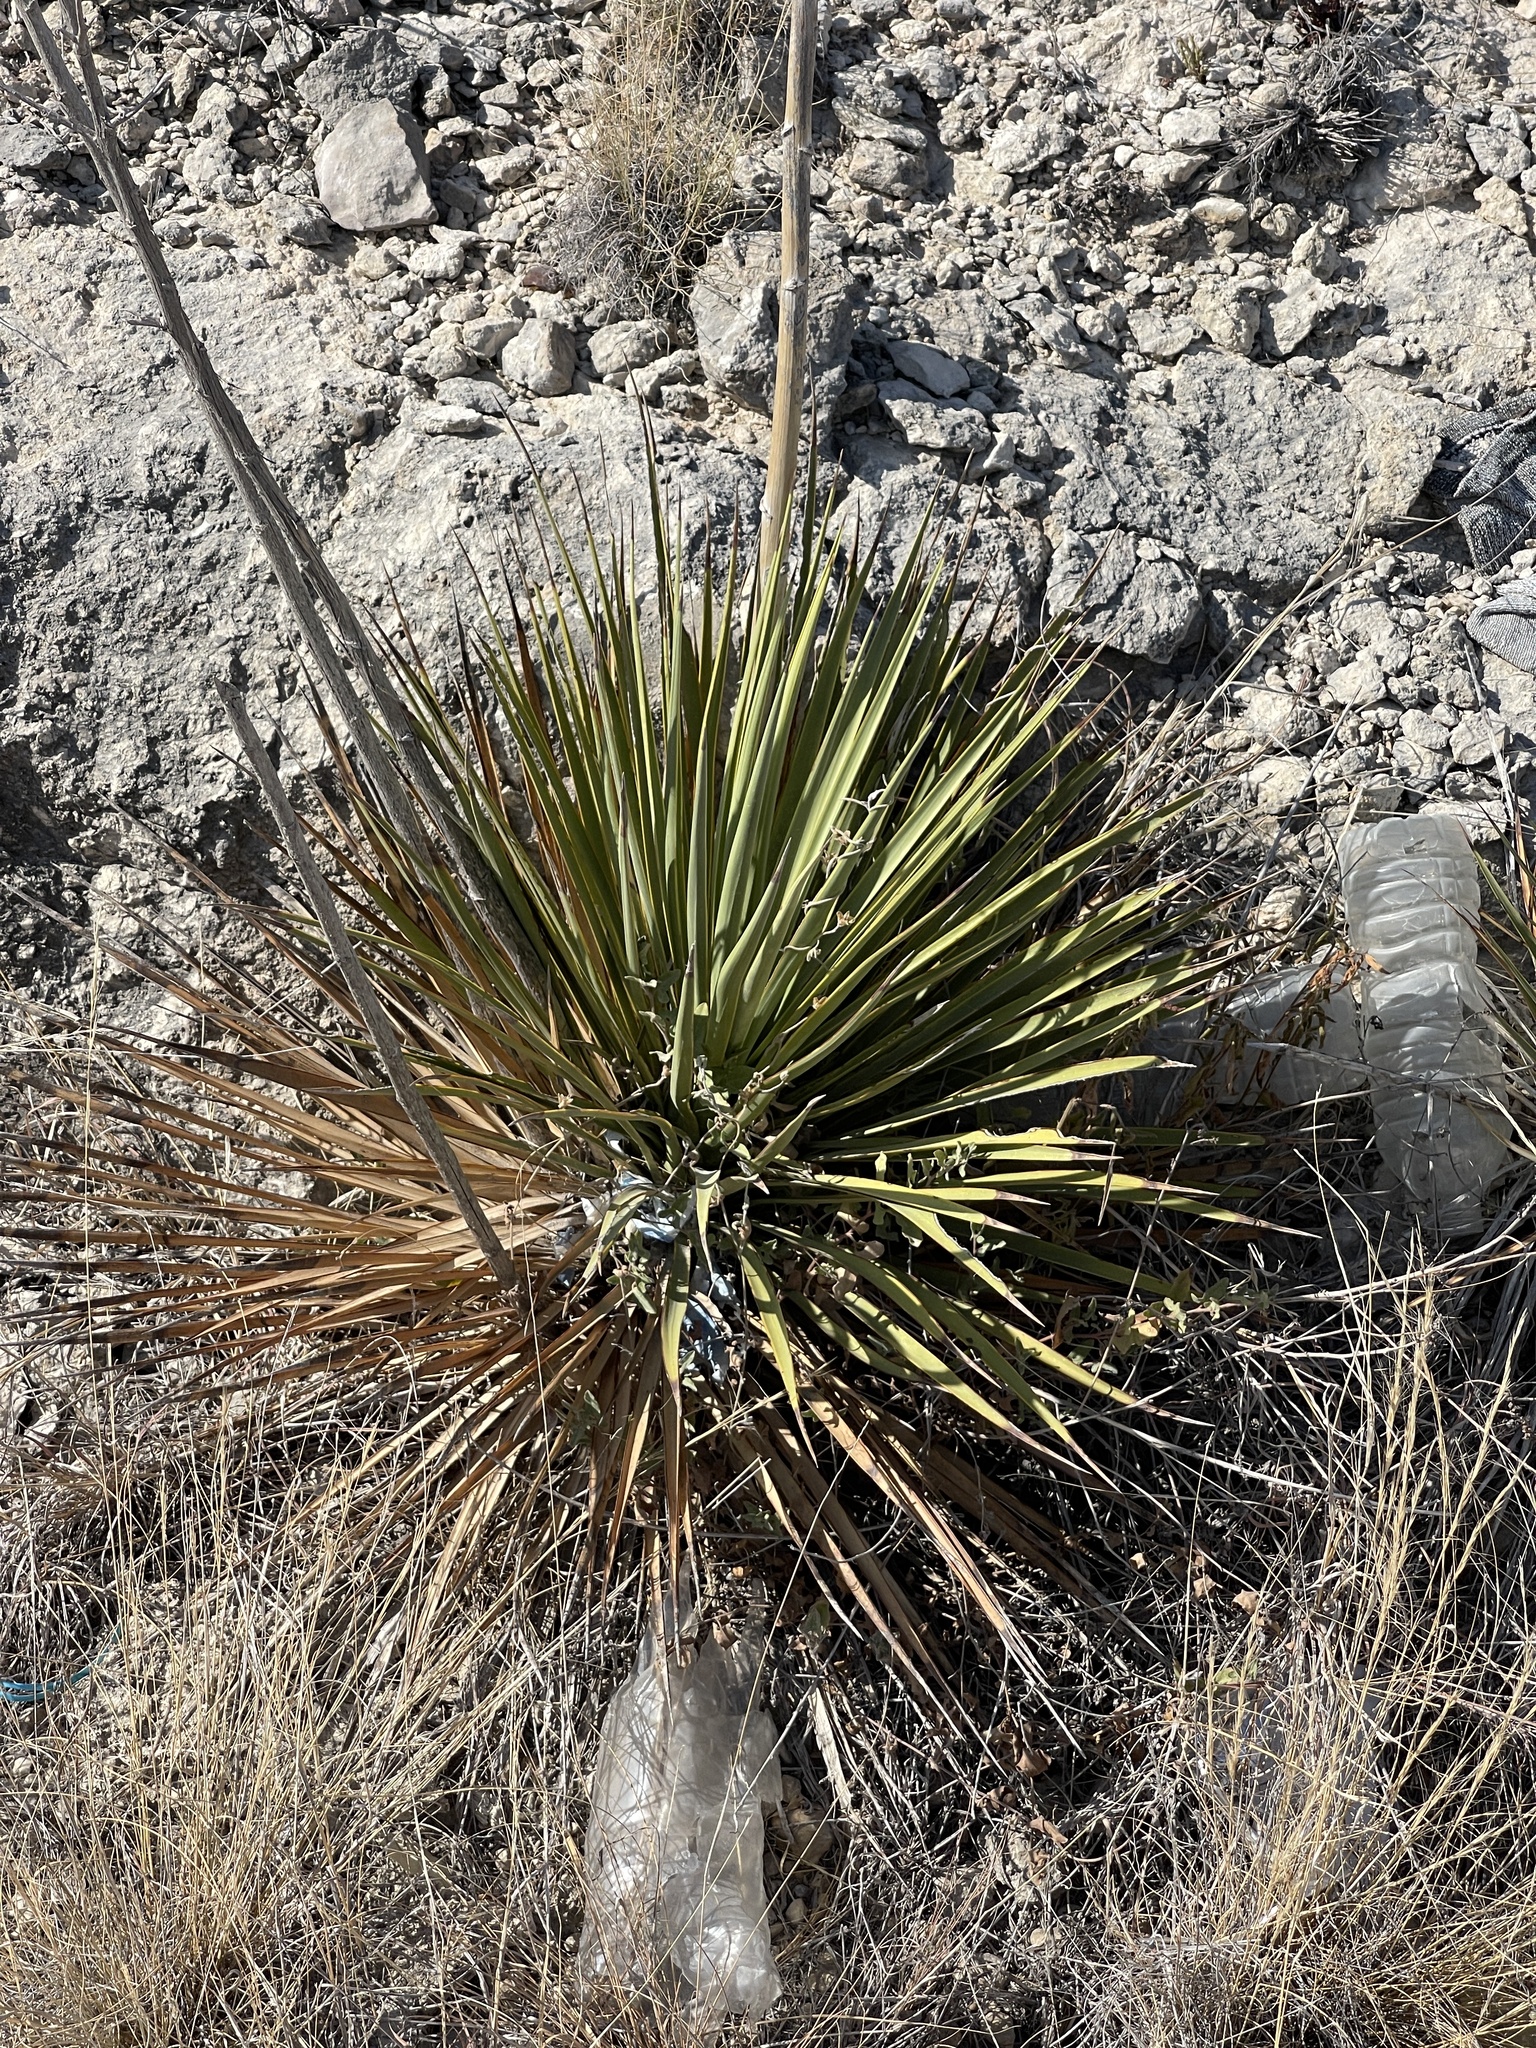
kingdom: Plantae
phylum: Tracheophyta
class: Liliopsida
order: Asparagales
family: Asparagaceae
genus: Yucca
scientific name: Yucca reverchonii
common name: San angelo yucca
